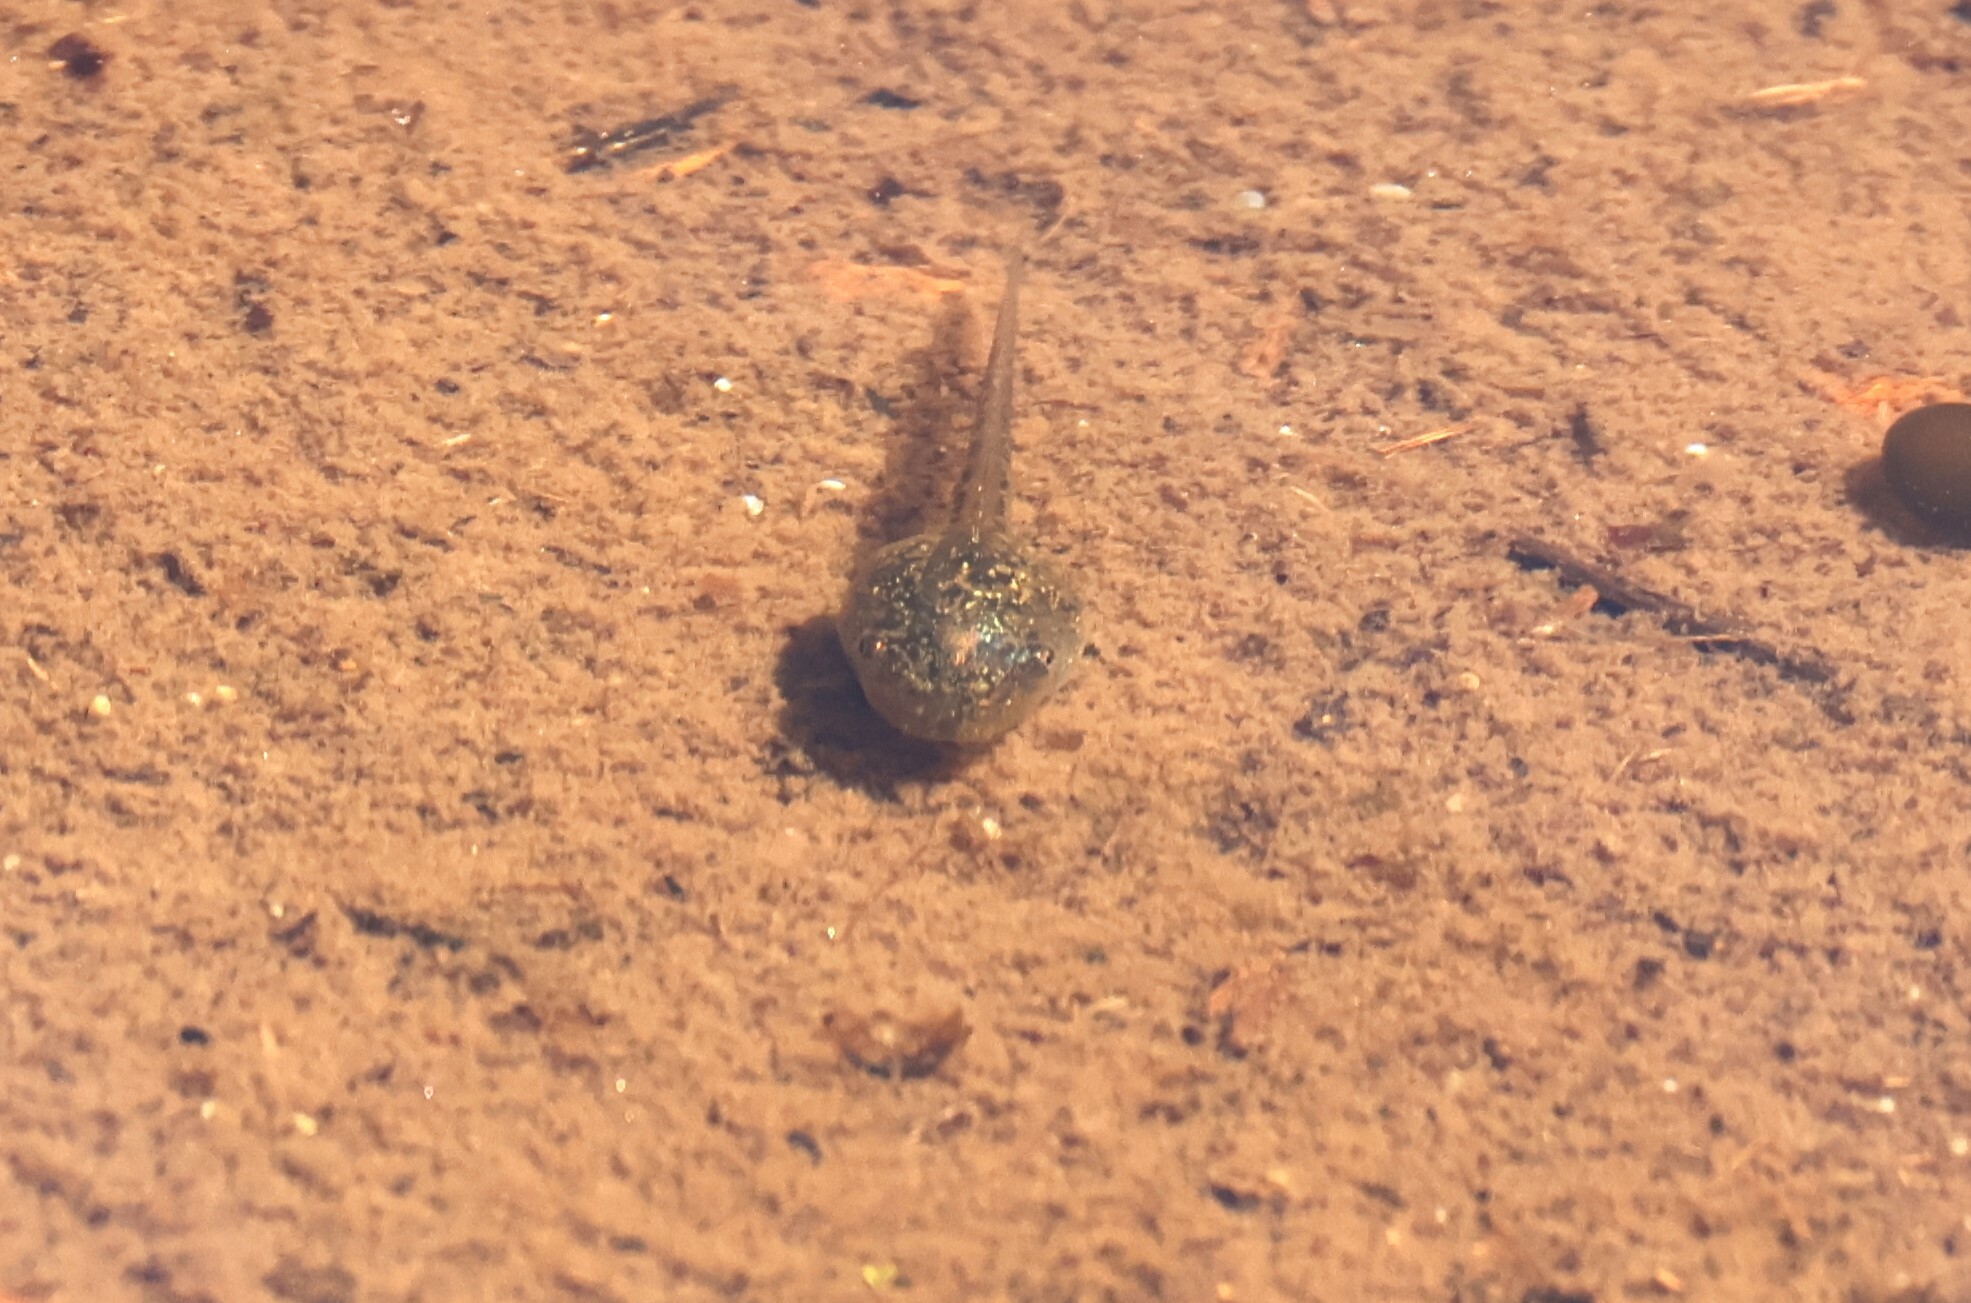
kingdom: Animalia
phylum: Chordata
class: Amphibia
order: Anura
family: Hylidae
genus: Pseudacris
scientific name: Pseudacris regilla
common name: Pacific chorus frog
